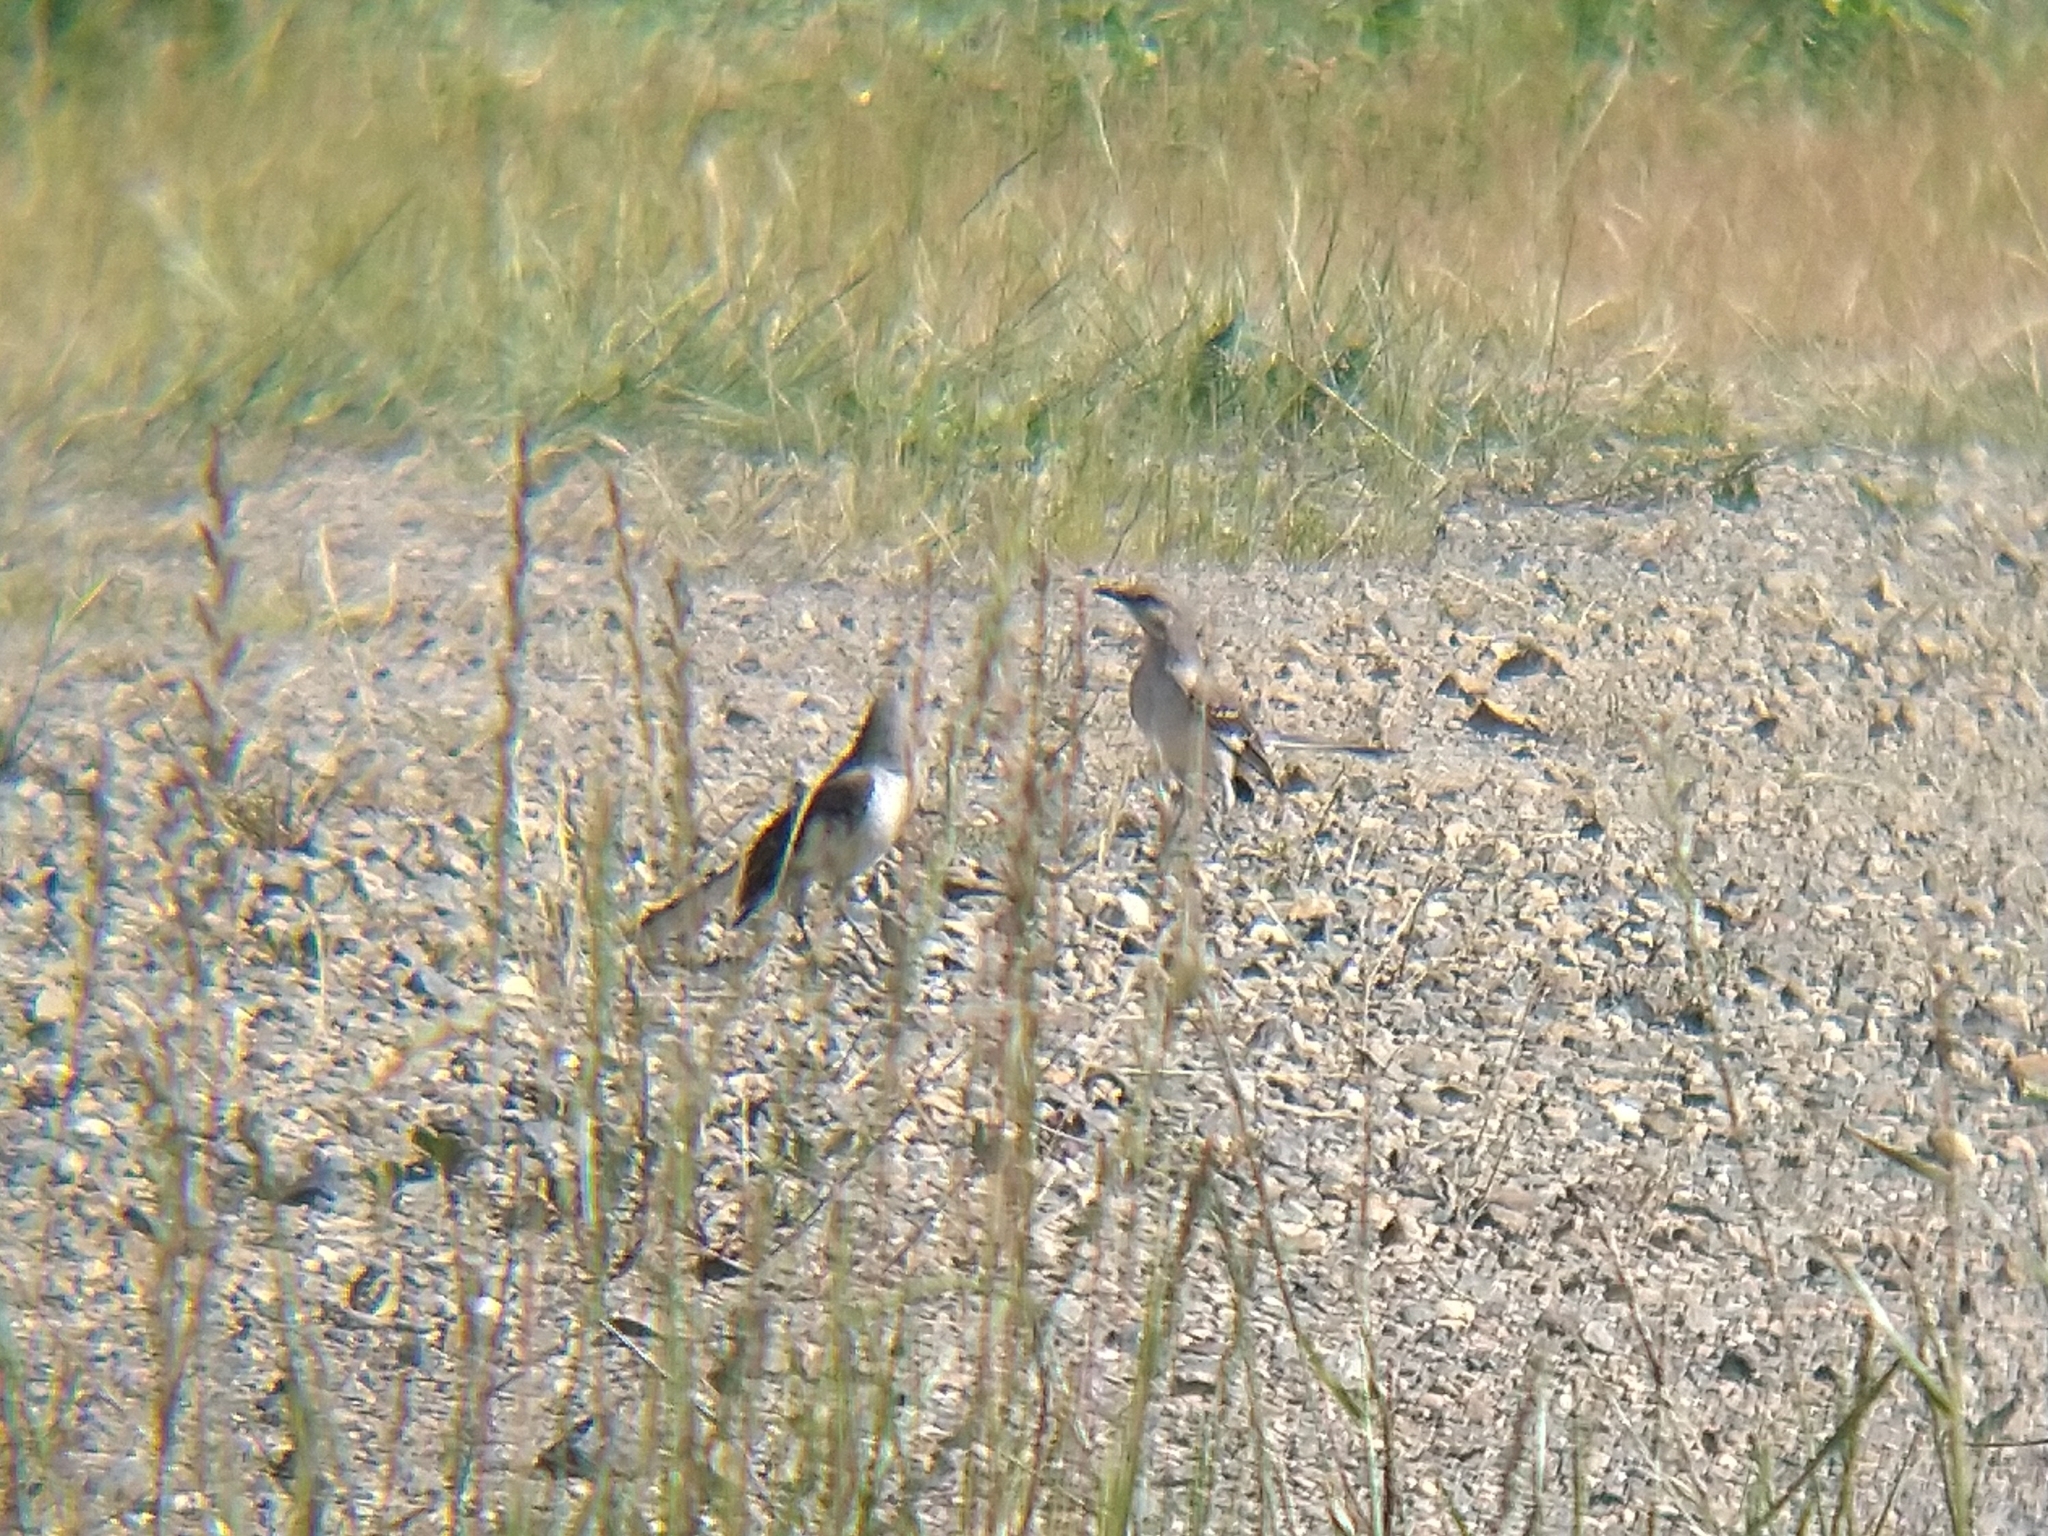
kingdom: Animalia
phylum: Chordata
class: Aves
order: Passeriformes
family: Mimidae
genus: Mimus
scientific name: Mimus polyglottos
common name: Northern mockingbird
